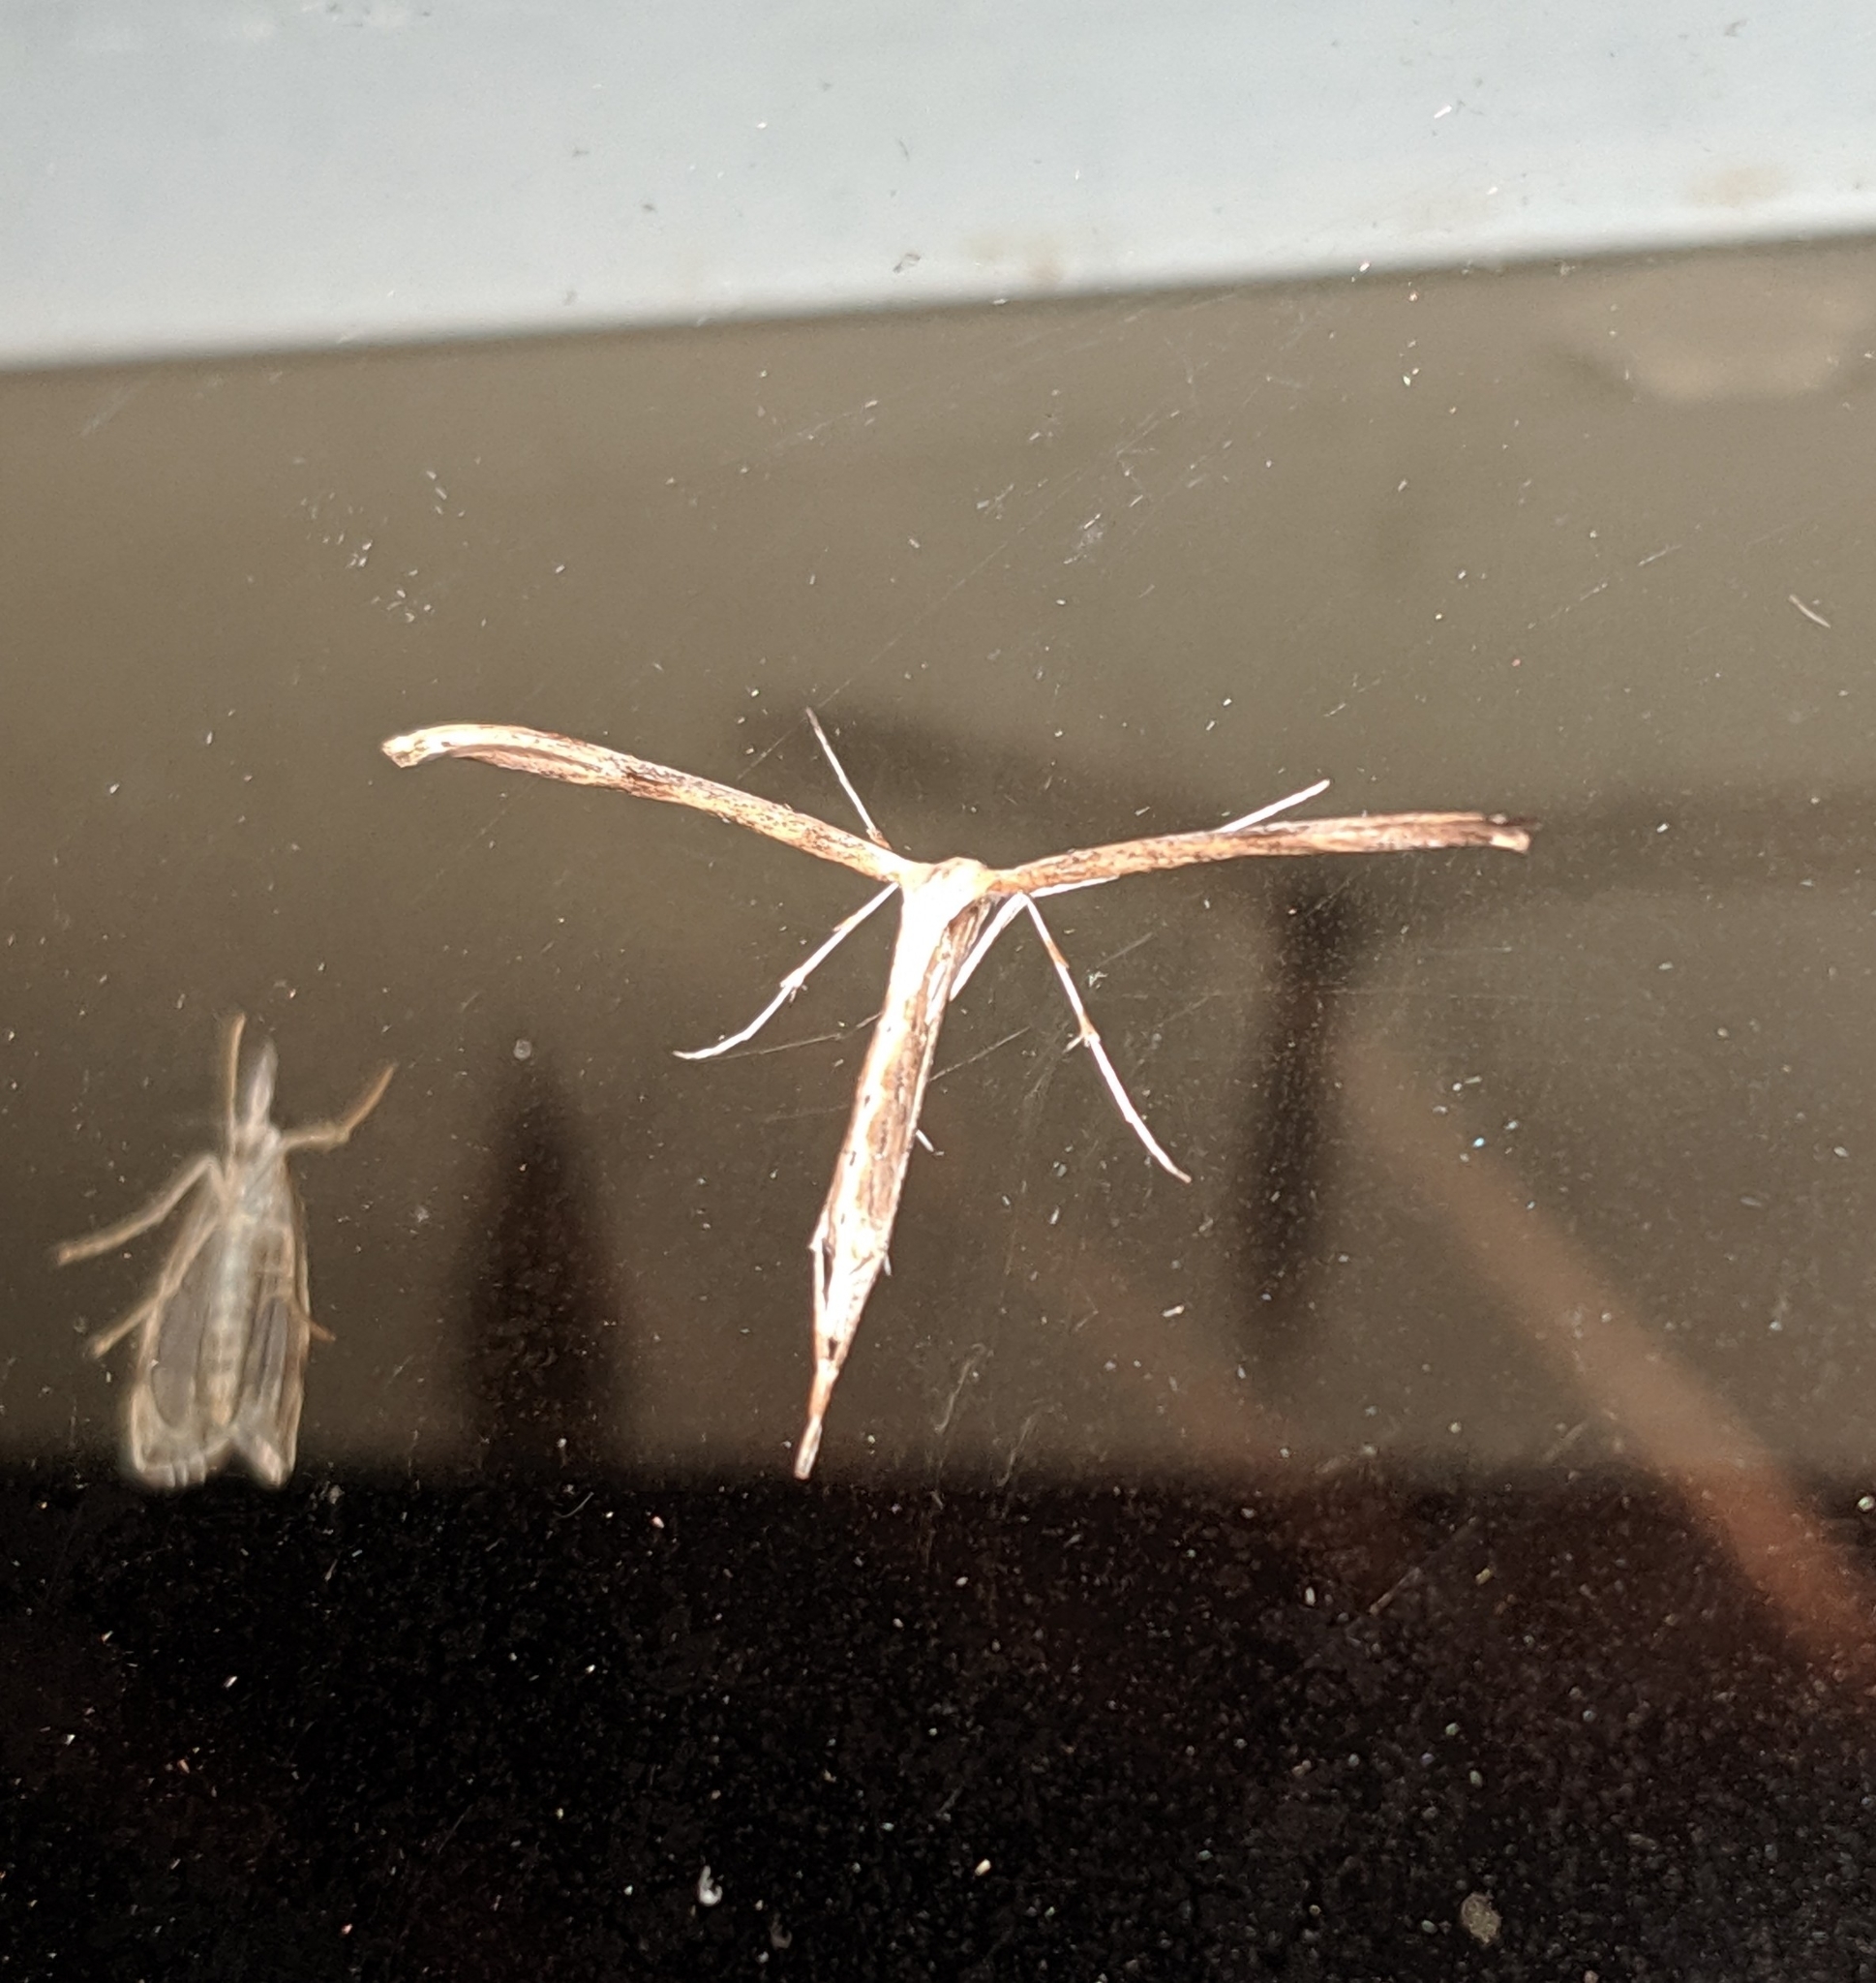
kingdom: Animalia
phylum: Arthropoda
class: Insecta
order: Lepidoptera
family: Pterophoridae
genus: Emmelina
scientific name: Emmelina monodactyla
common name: Common plume
